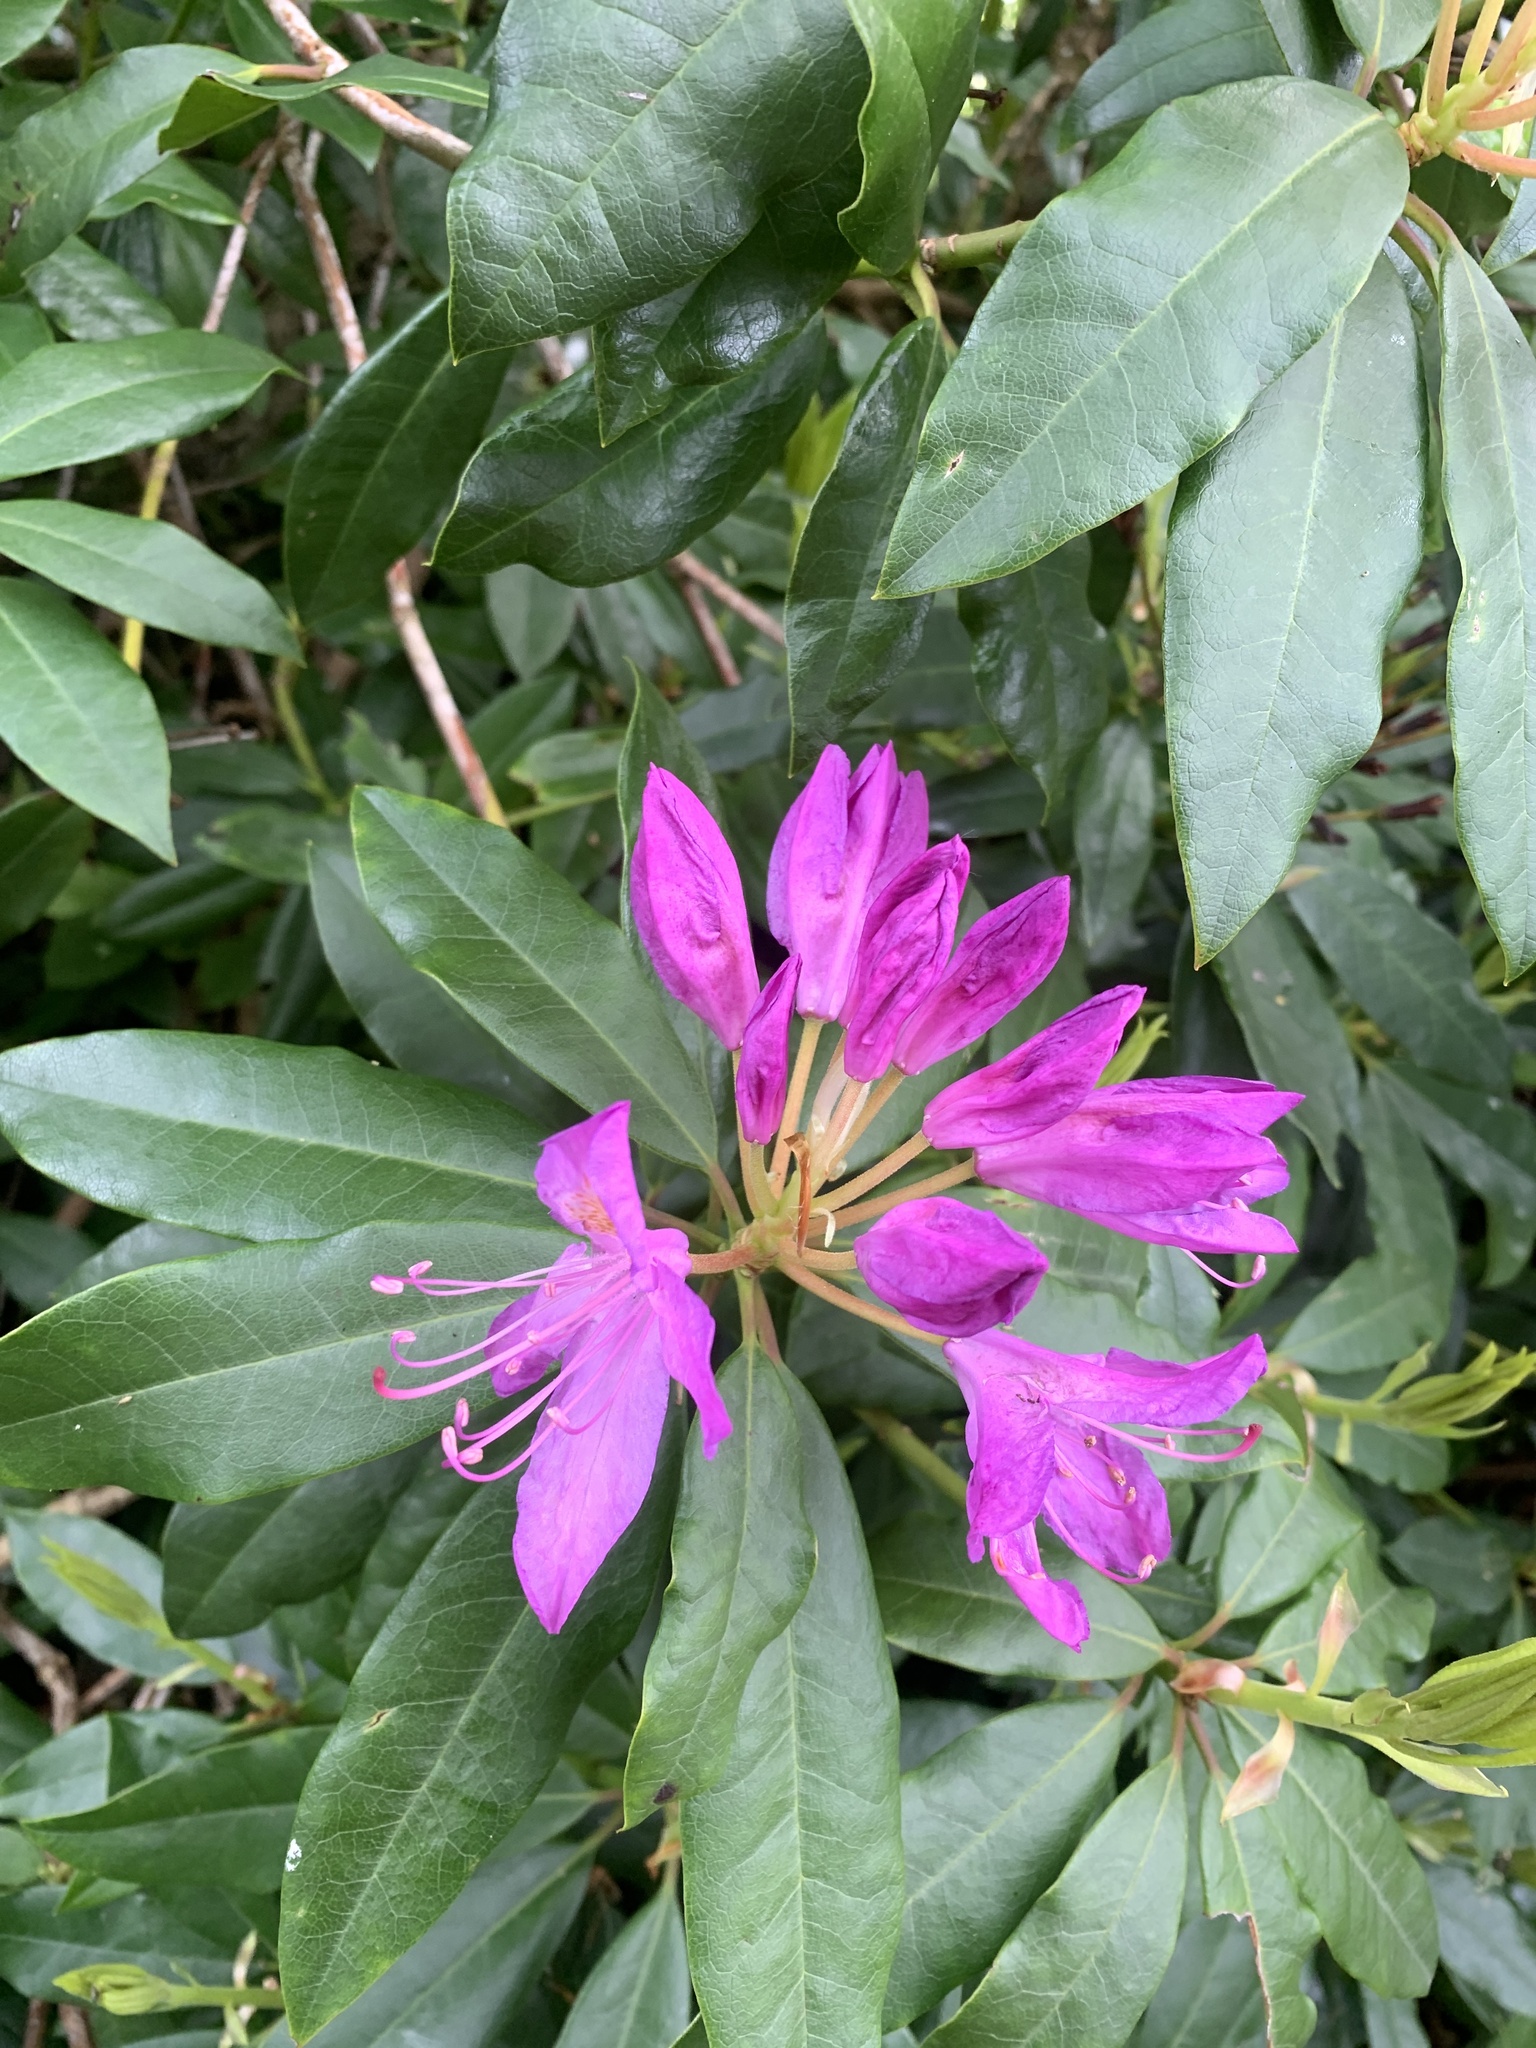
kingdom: Plantae
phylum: Tracheophyta
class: Magnoliopsida
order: Ericales
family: Ericaceae
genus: Rhododendron
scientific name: Rhododendron ponticum
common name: Rhododendron
